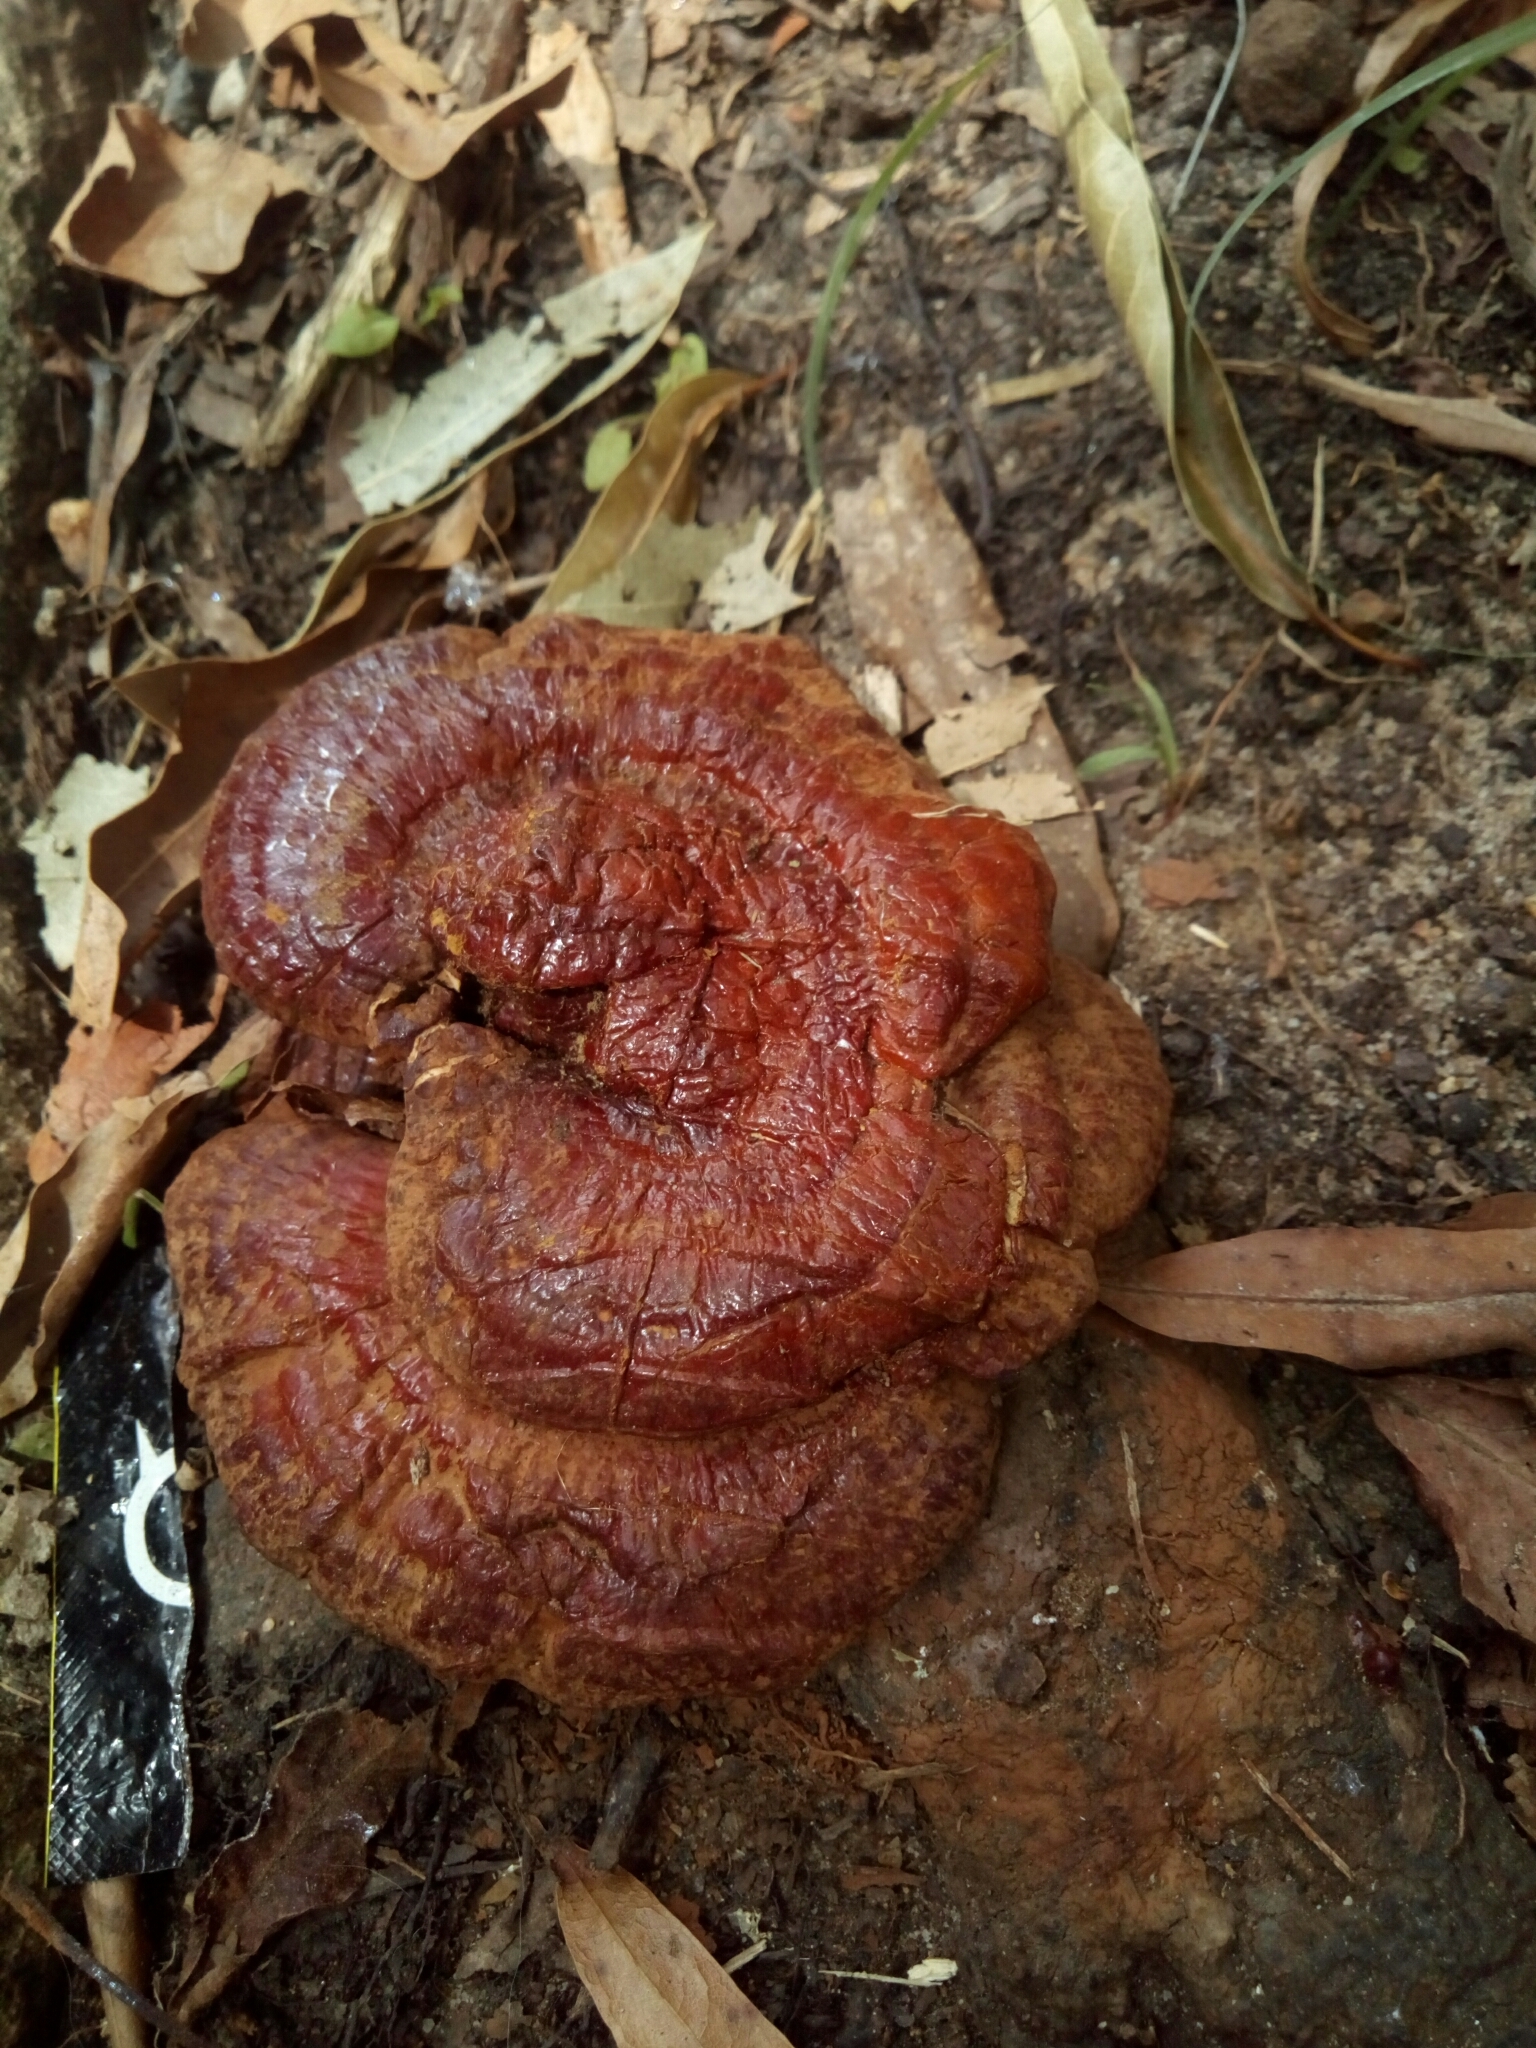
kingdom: Fungi
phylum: Basidiomycota
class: Agaricomycetes
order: Polyporales
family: Polyporaceae
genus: Ganoderma
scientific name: Ganoderma resinaceum
